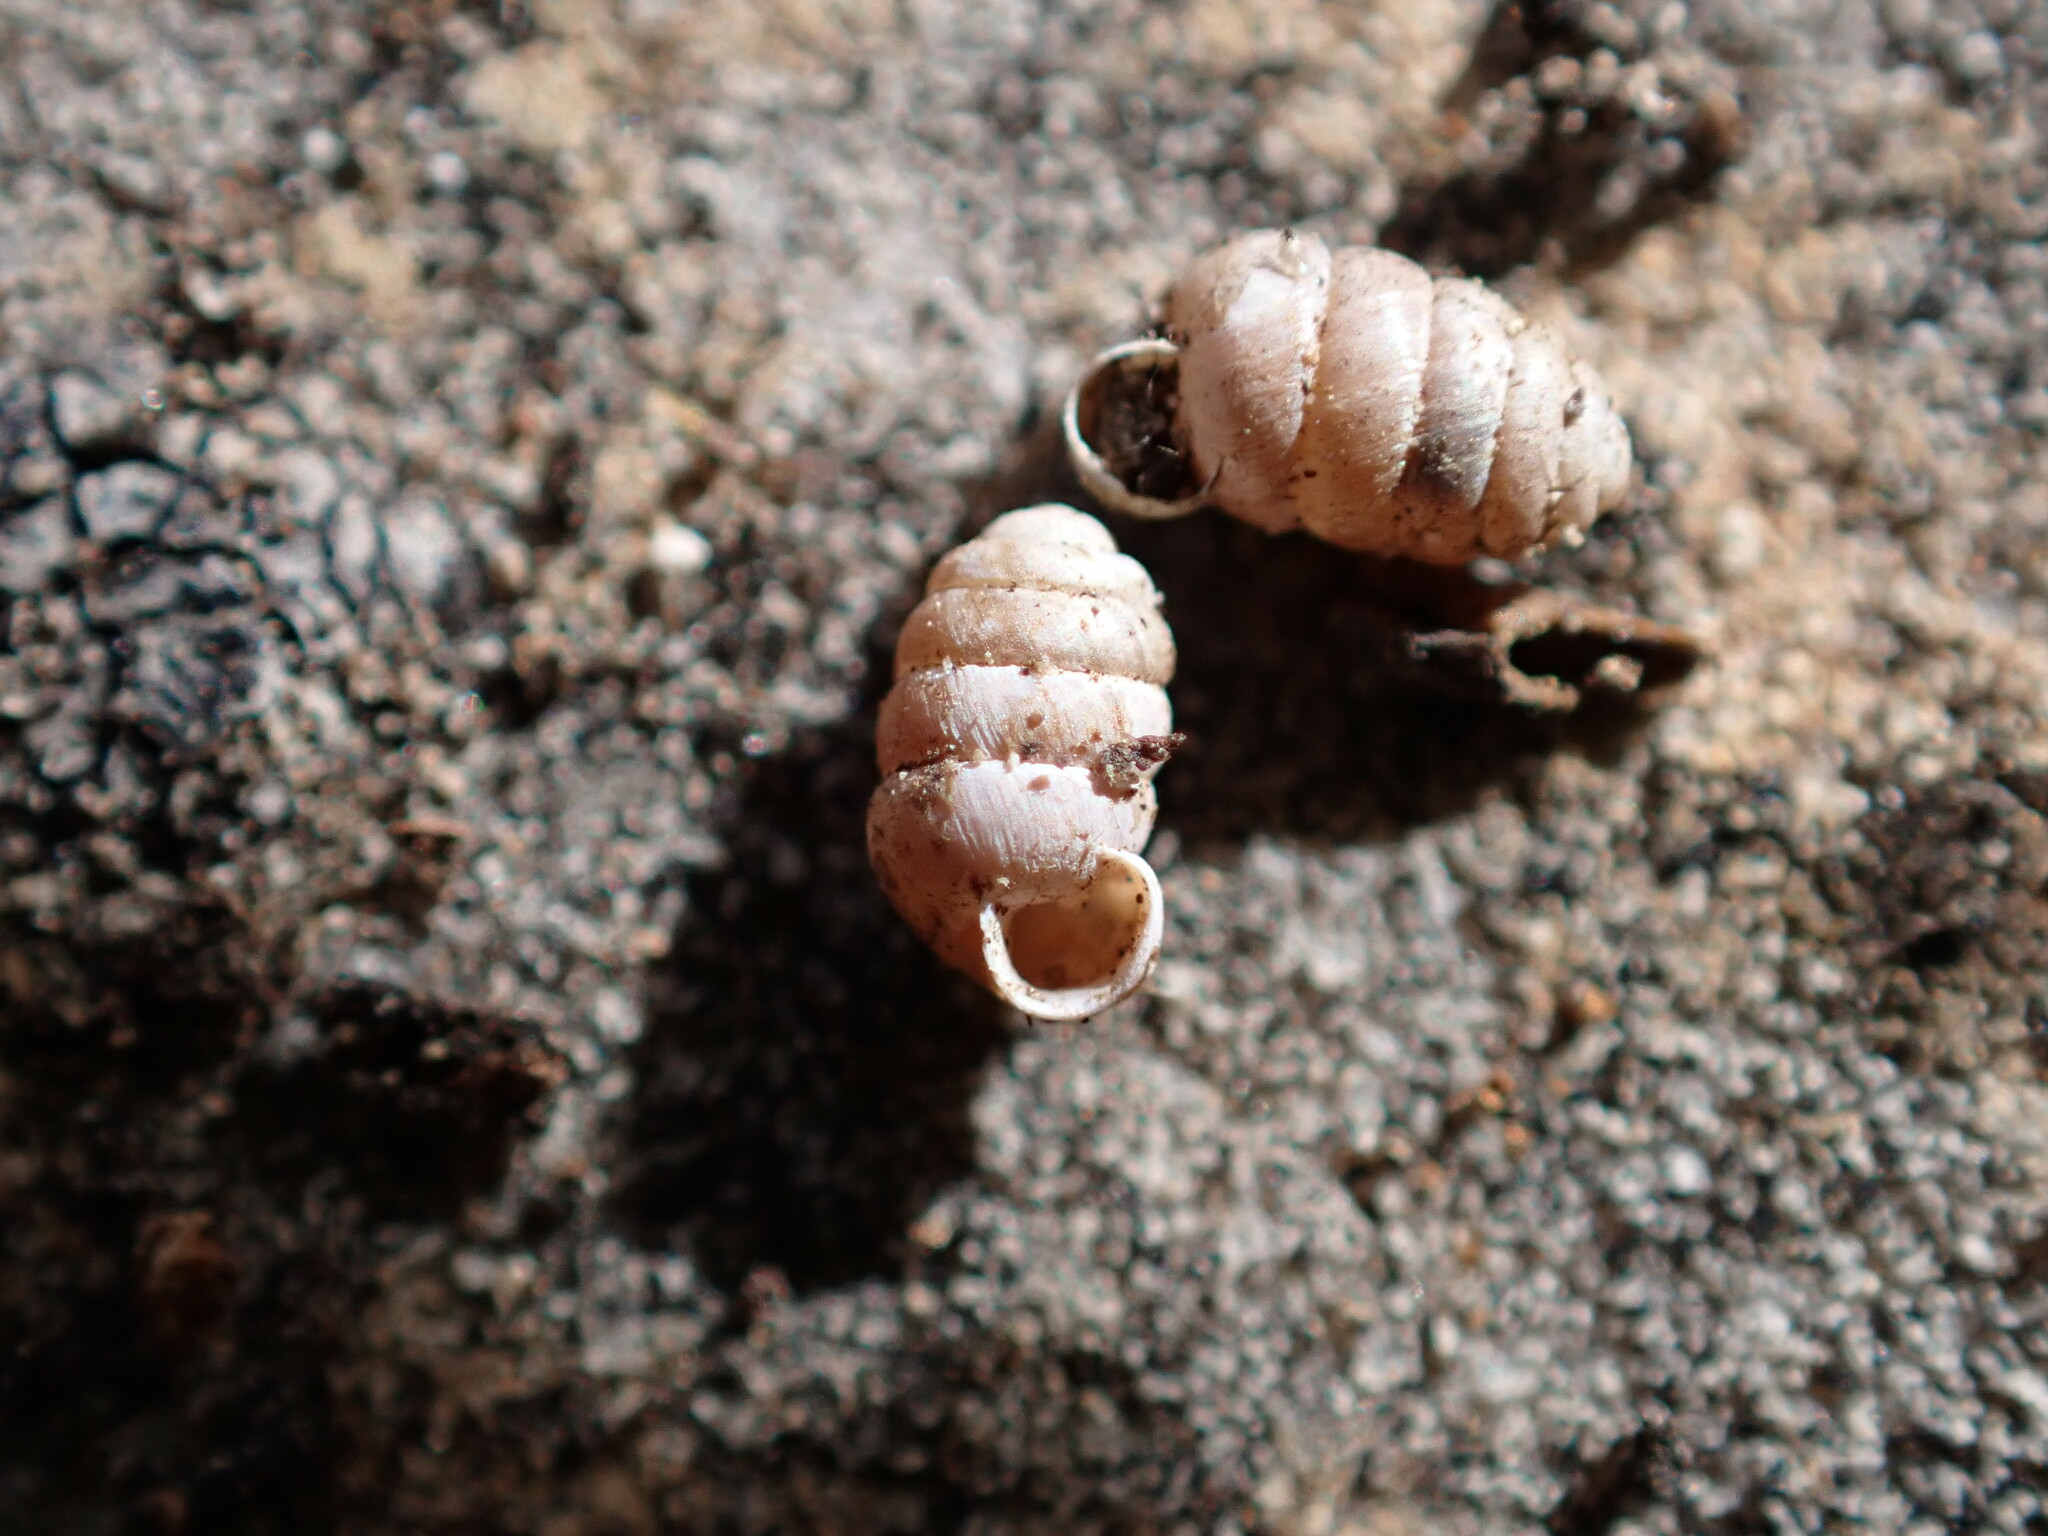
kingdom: Animalia
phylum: Mollusca
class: Gastropoda
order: Stylommatophora
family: Pupillidae
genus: Pupilla
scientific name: Pupilla muscorum
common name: Moss chrysalis snail
